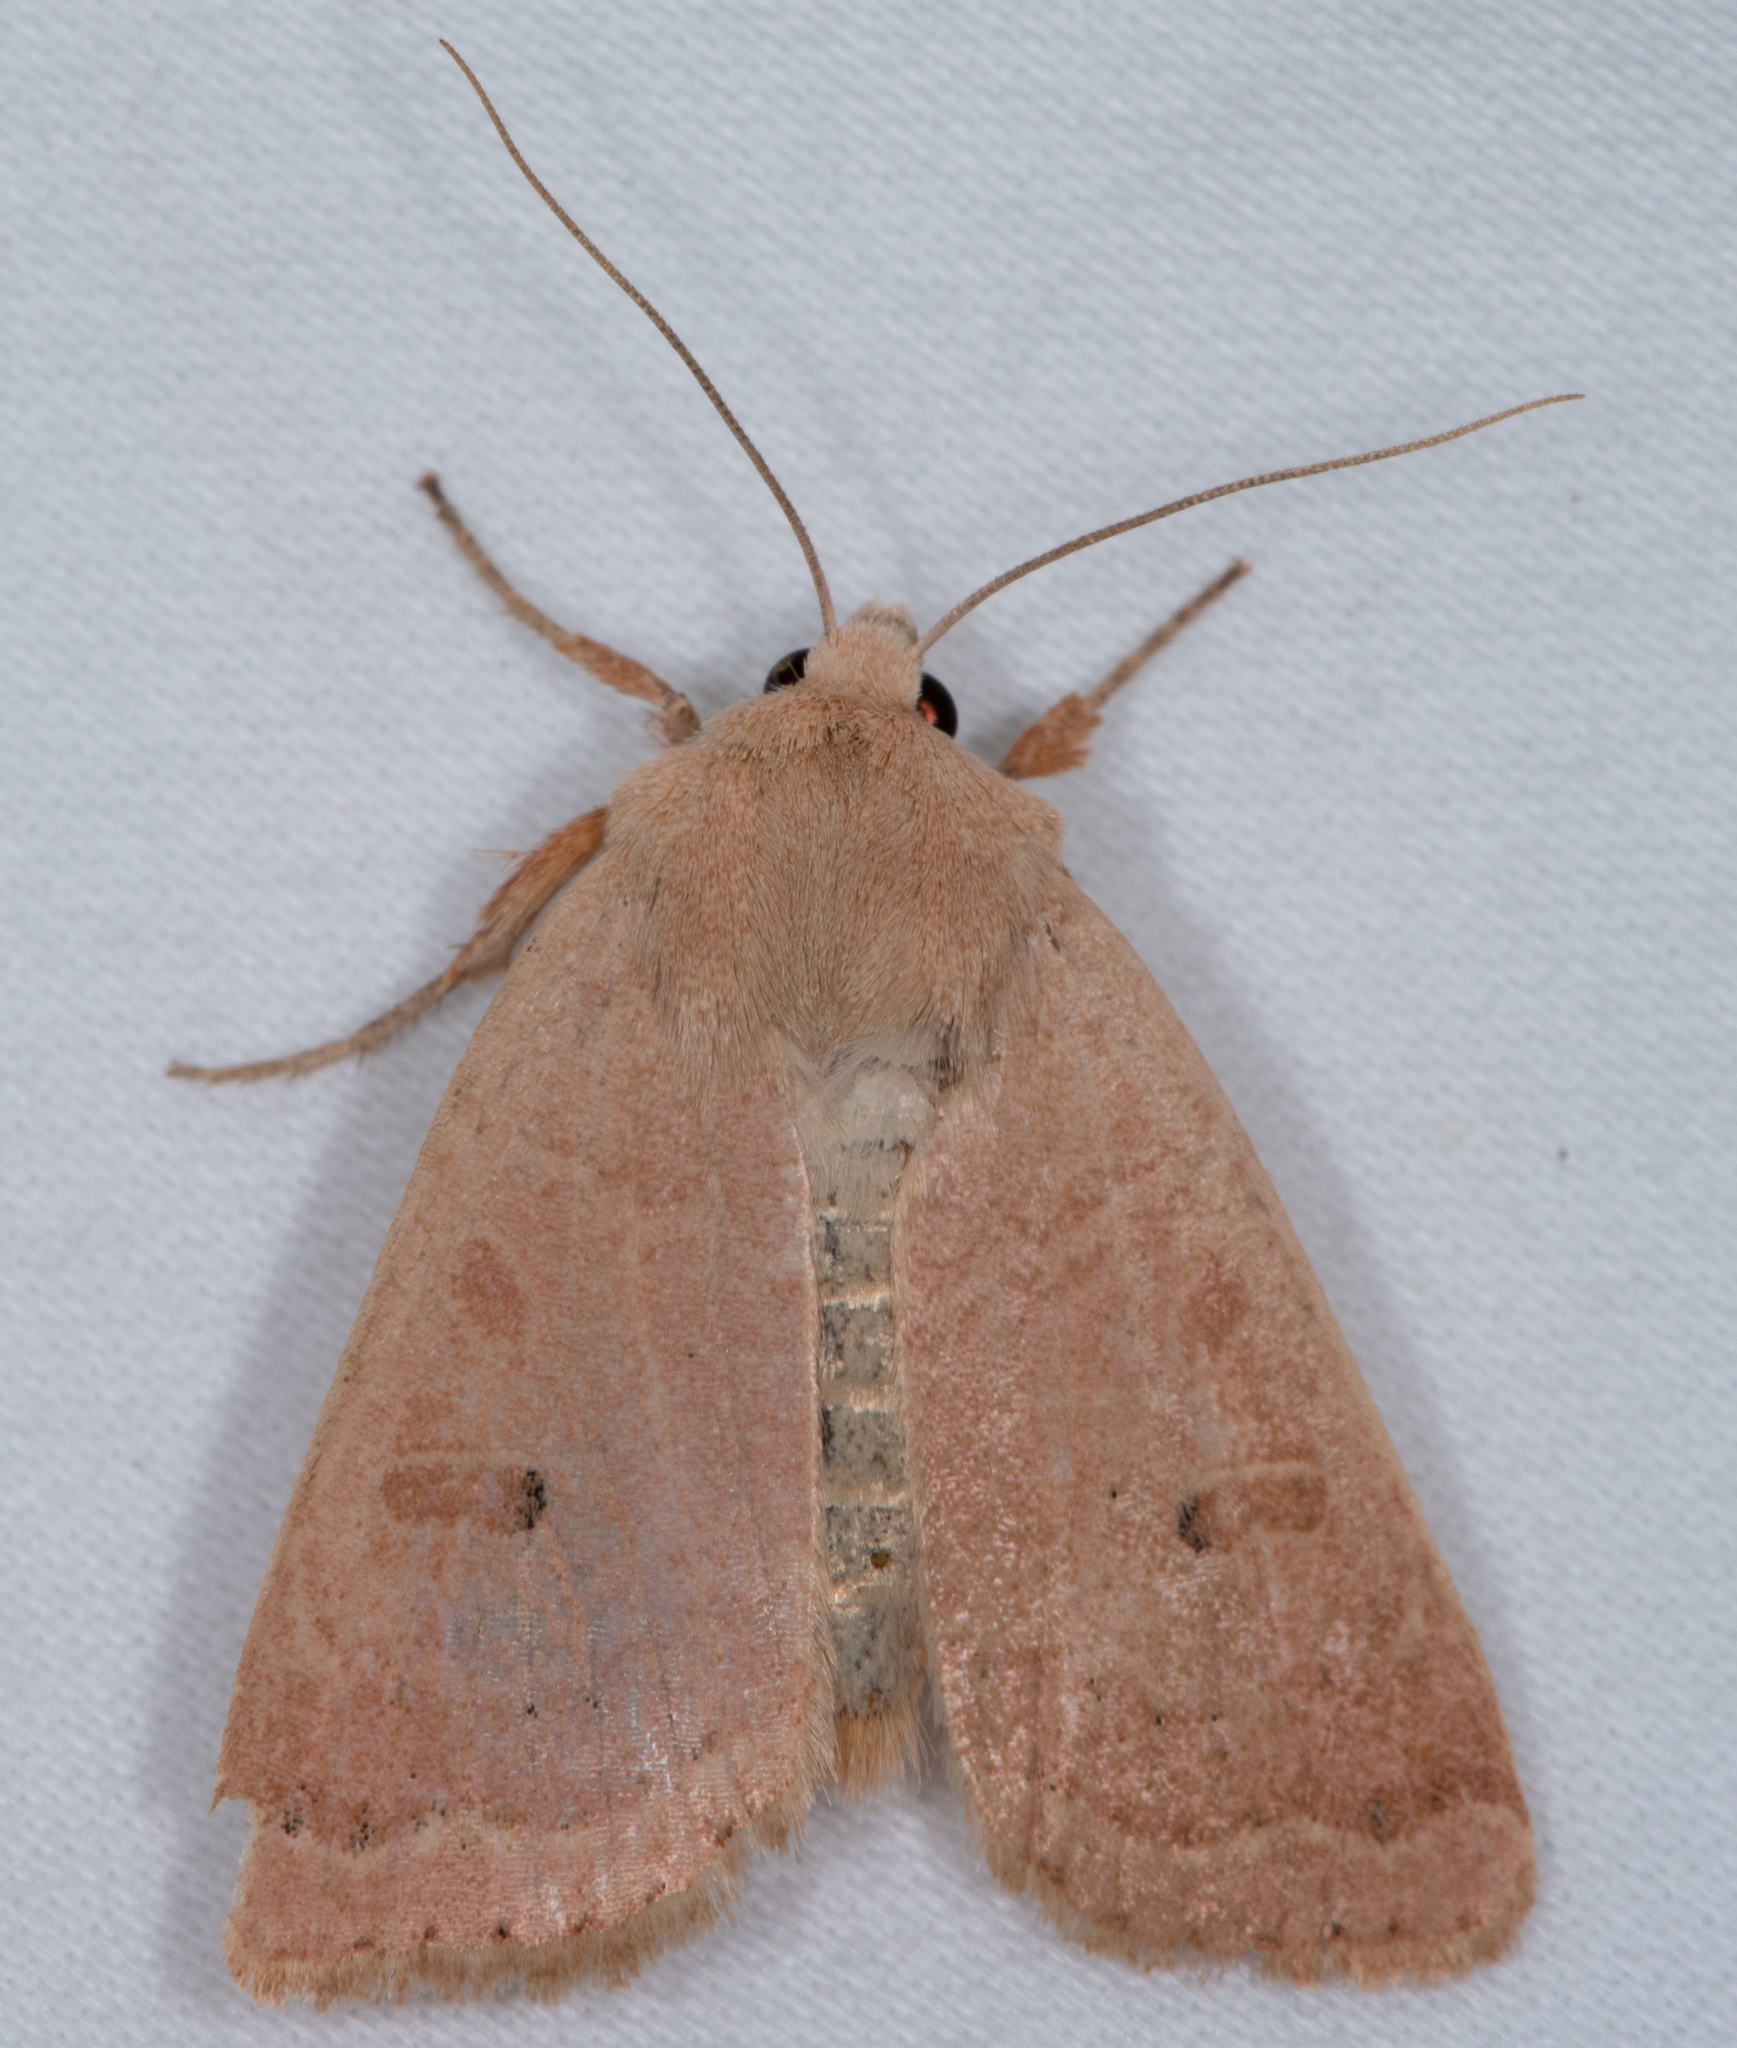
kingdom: Animalia
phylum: Arthropoda
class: Insecta
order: Lepidoptera
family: Noctuidae
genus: Cosmia
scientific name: Cosmia calami
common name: American dun-bar moth
